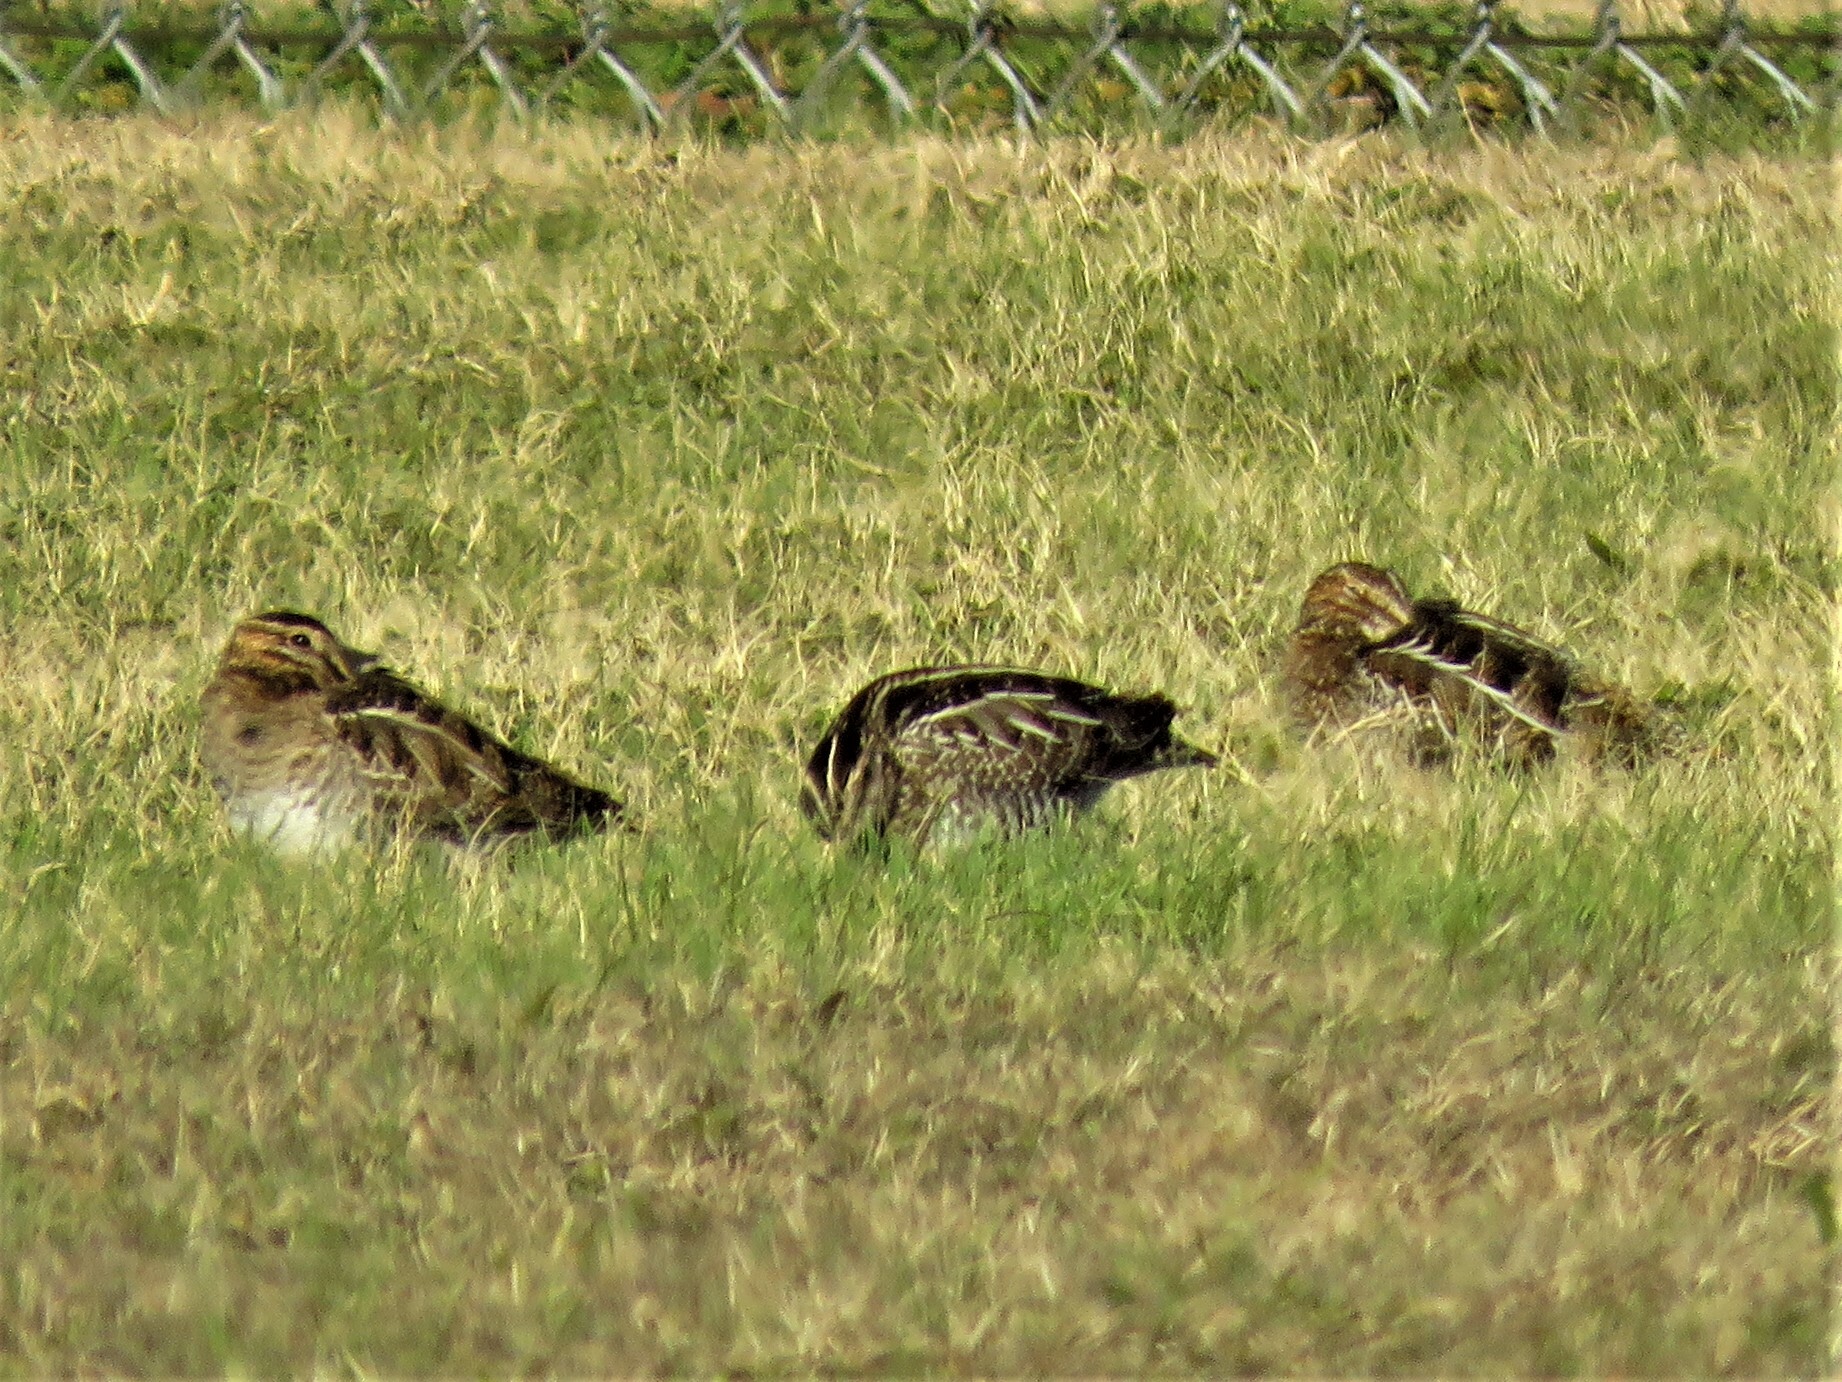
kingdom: Animalia
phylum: Chordata
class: Aves
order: Charadriiformes
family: Scolopacidae
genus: Gallinago
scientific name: Gallinago delicata
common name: Wilson's snipe
